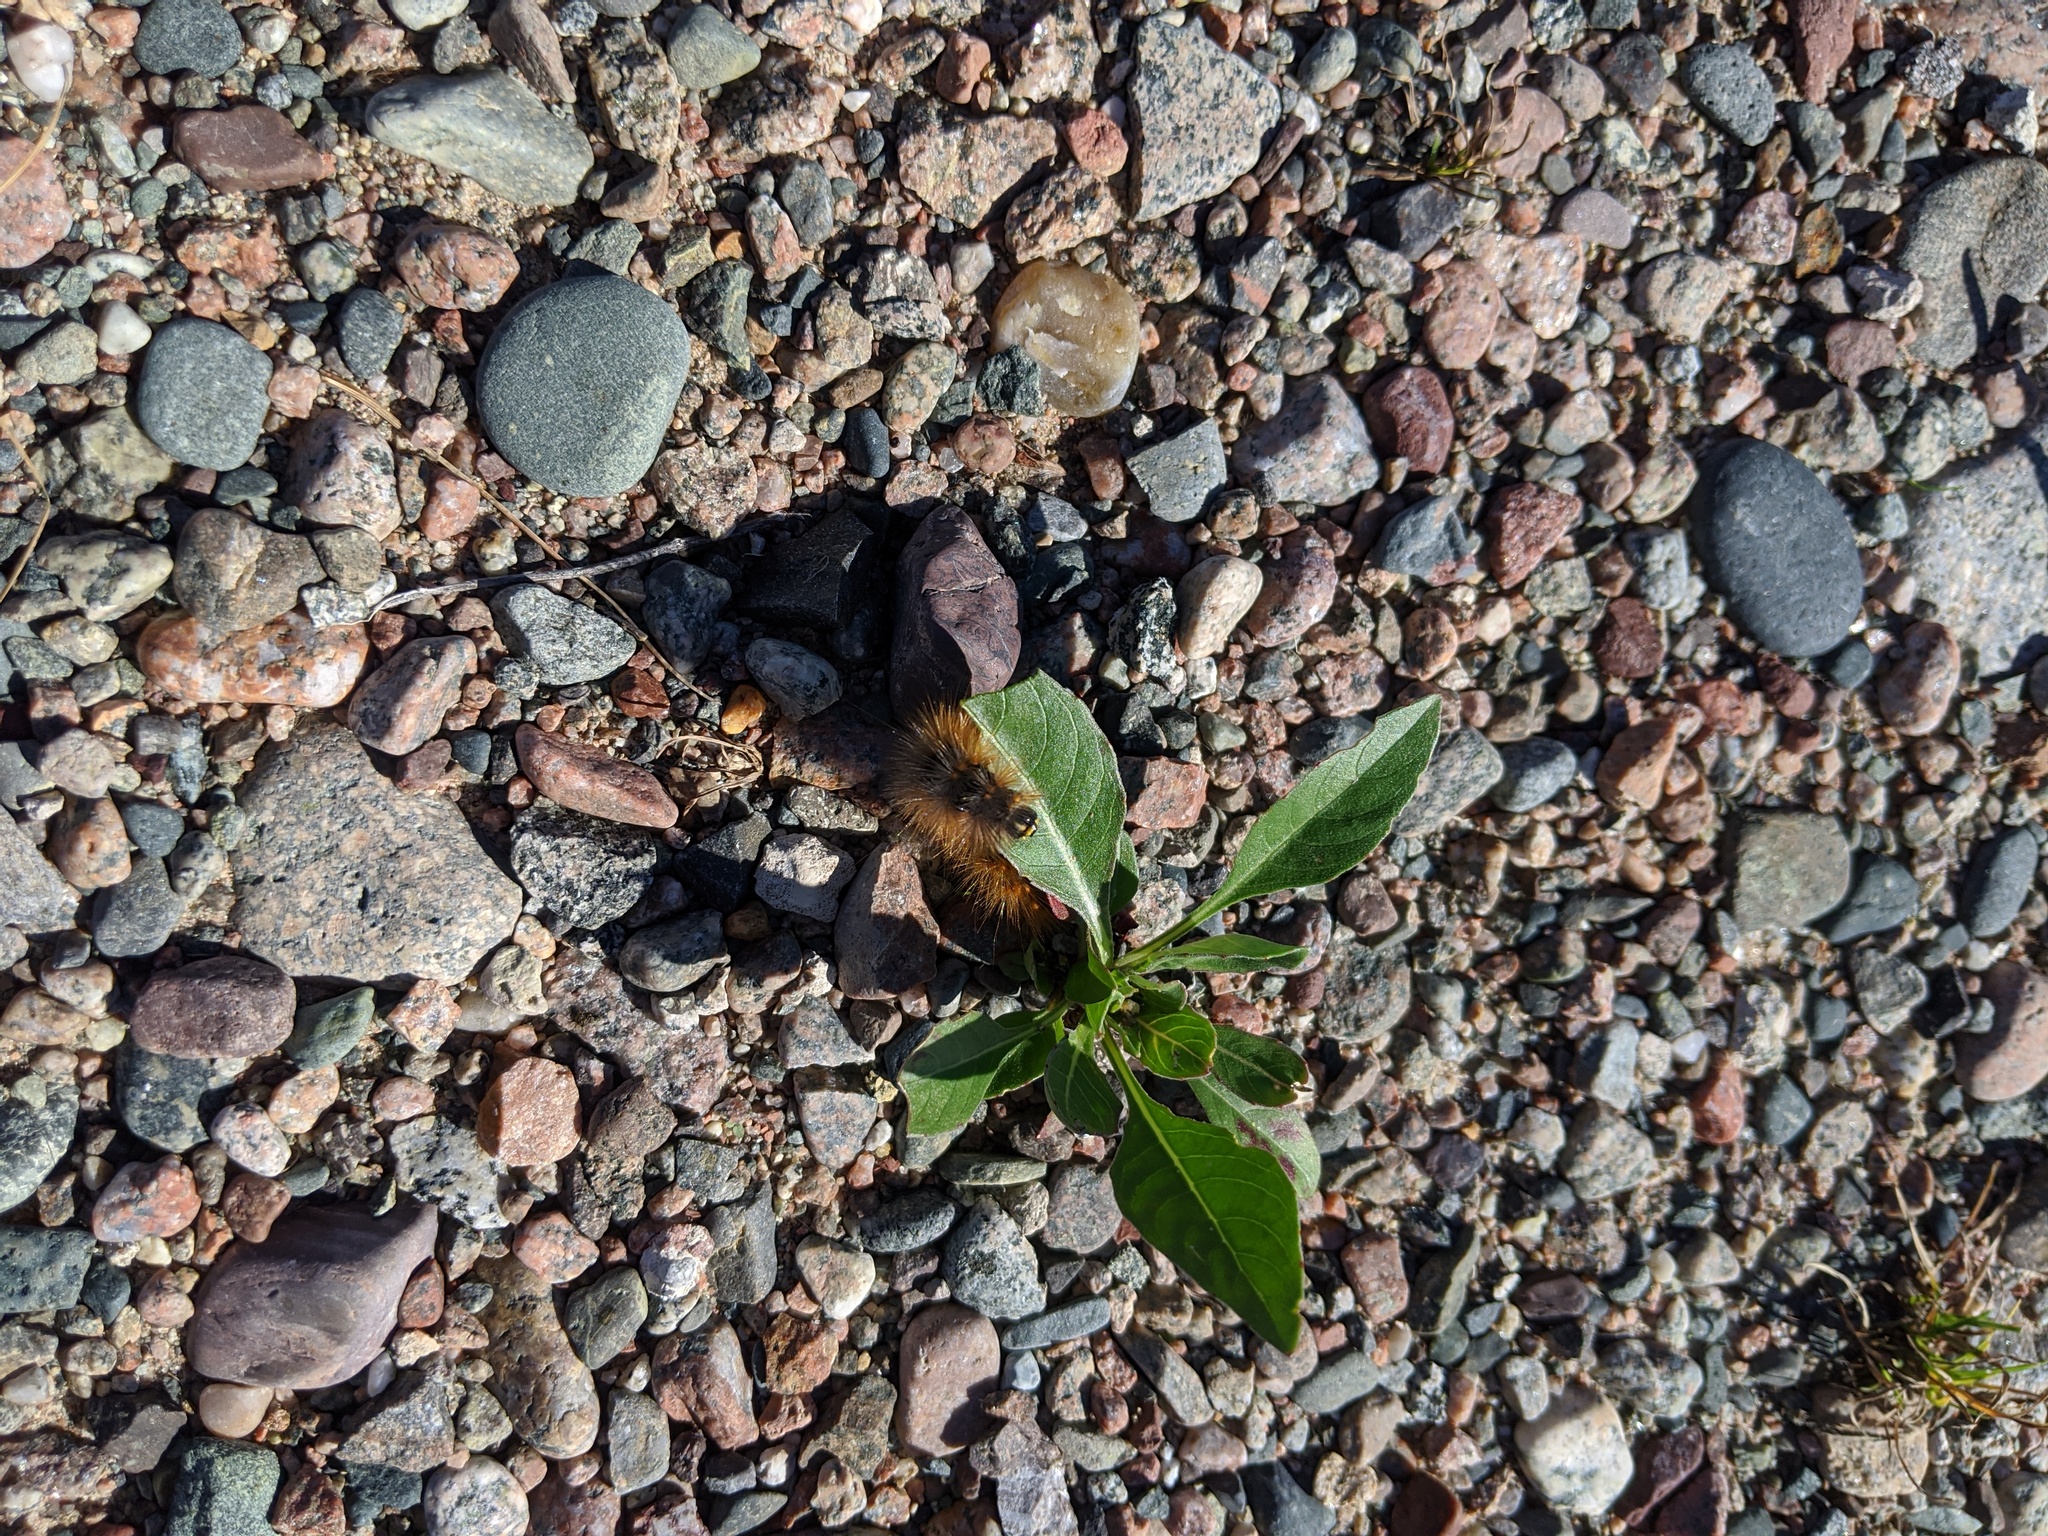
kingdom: Animalia
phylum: Arthropoda
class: Insecta
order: Lepidoptera
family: Erebidae
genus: Estigmene
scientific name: Estigmene acrea
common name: Salt marsh moth
